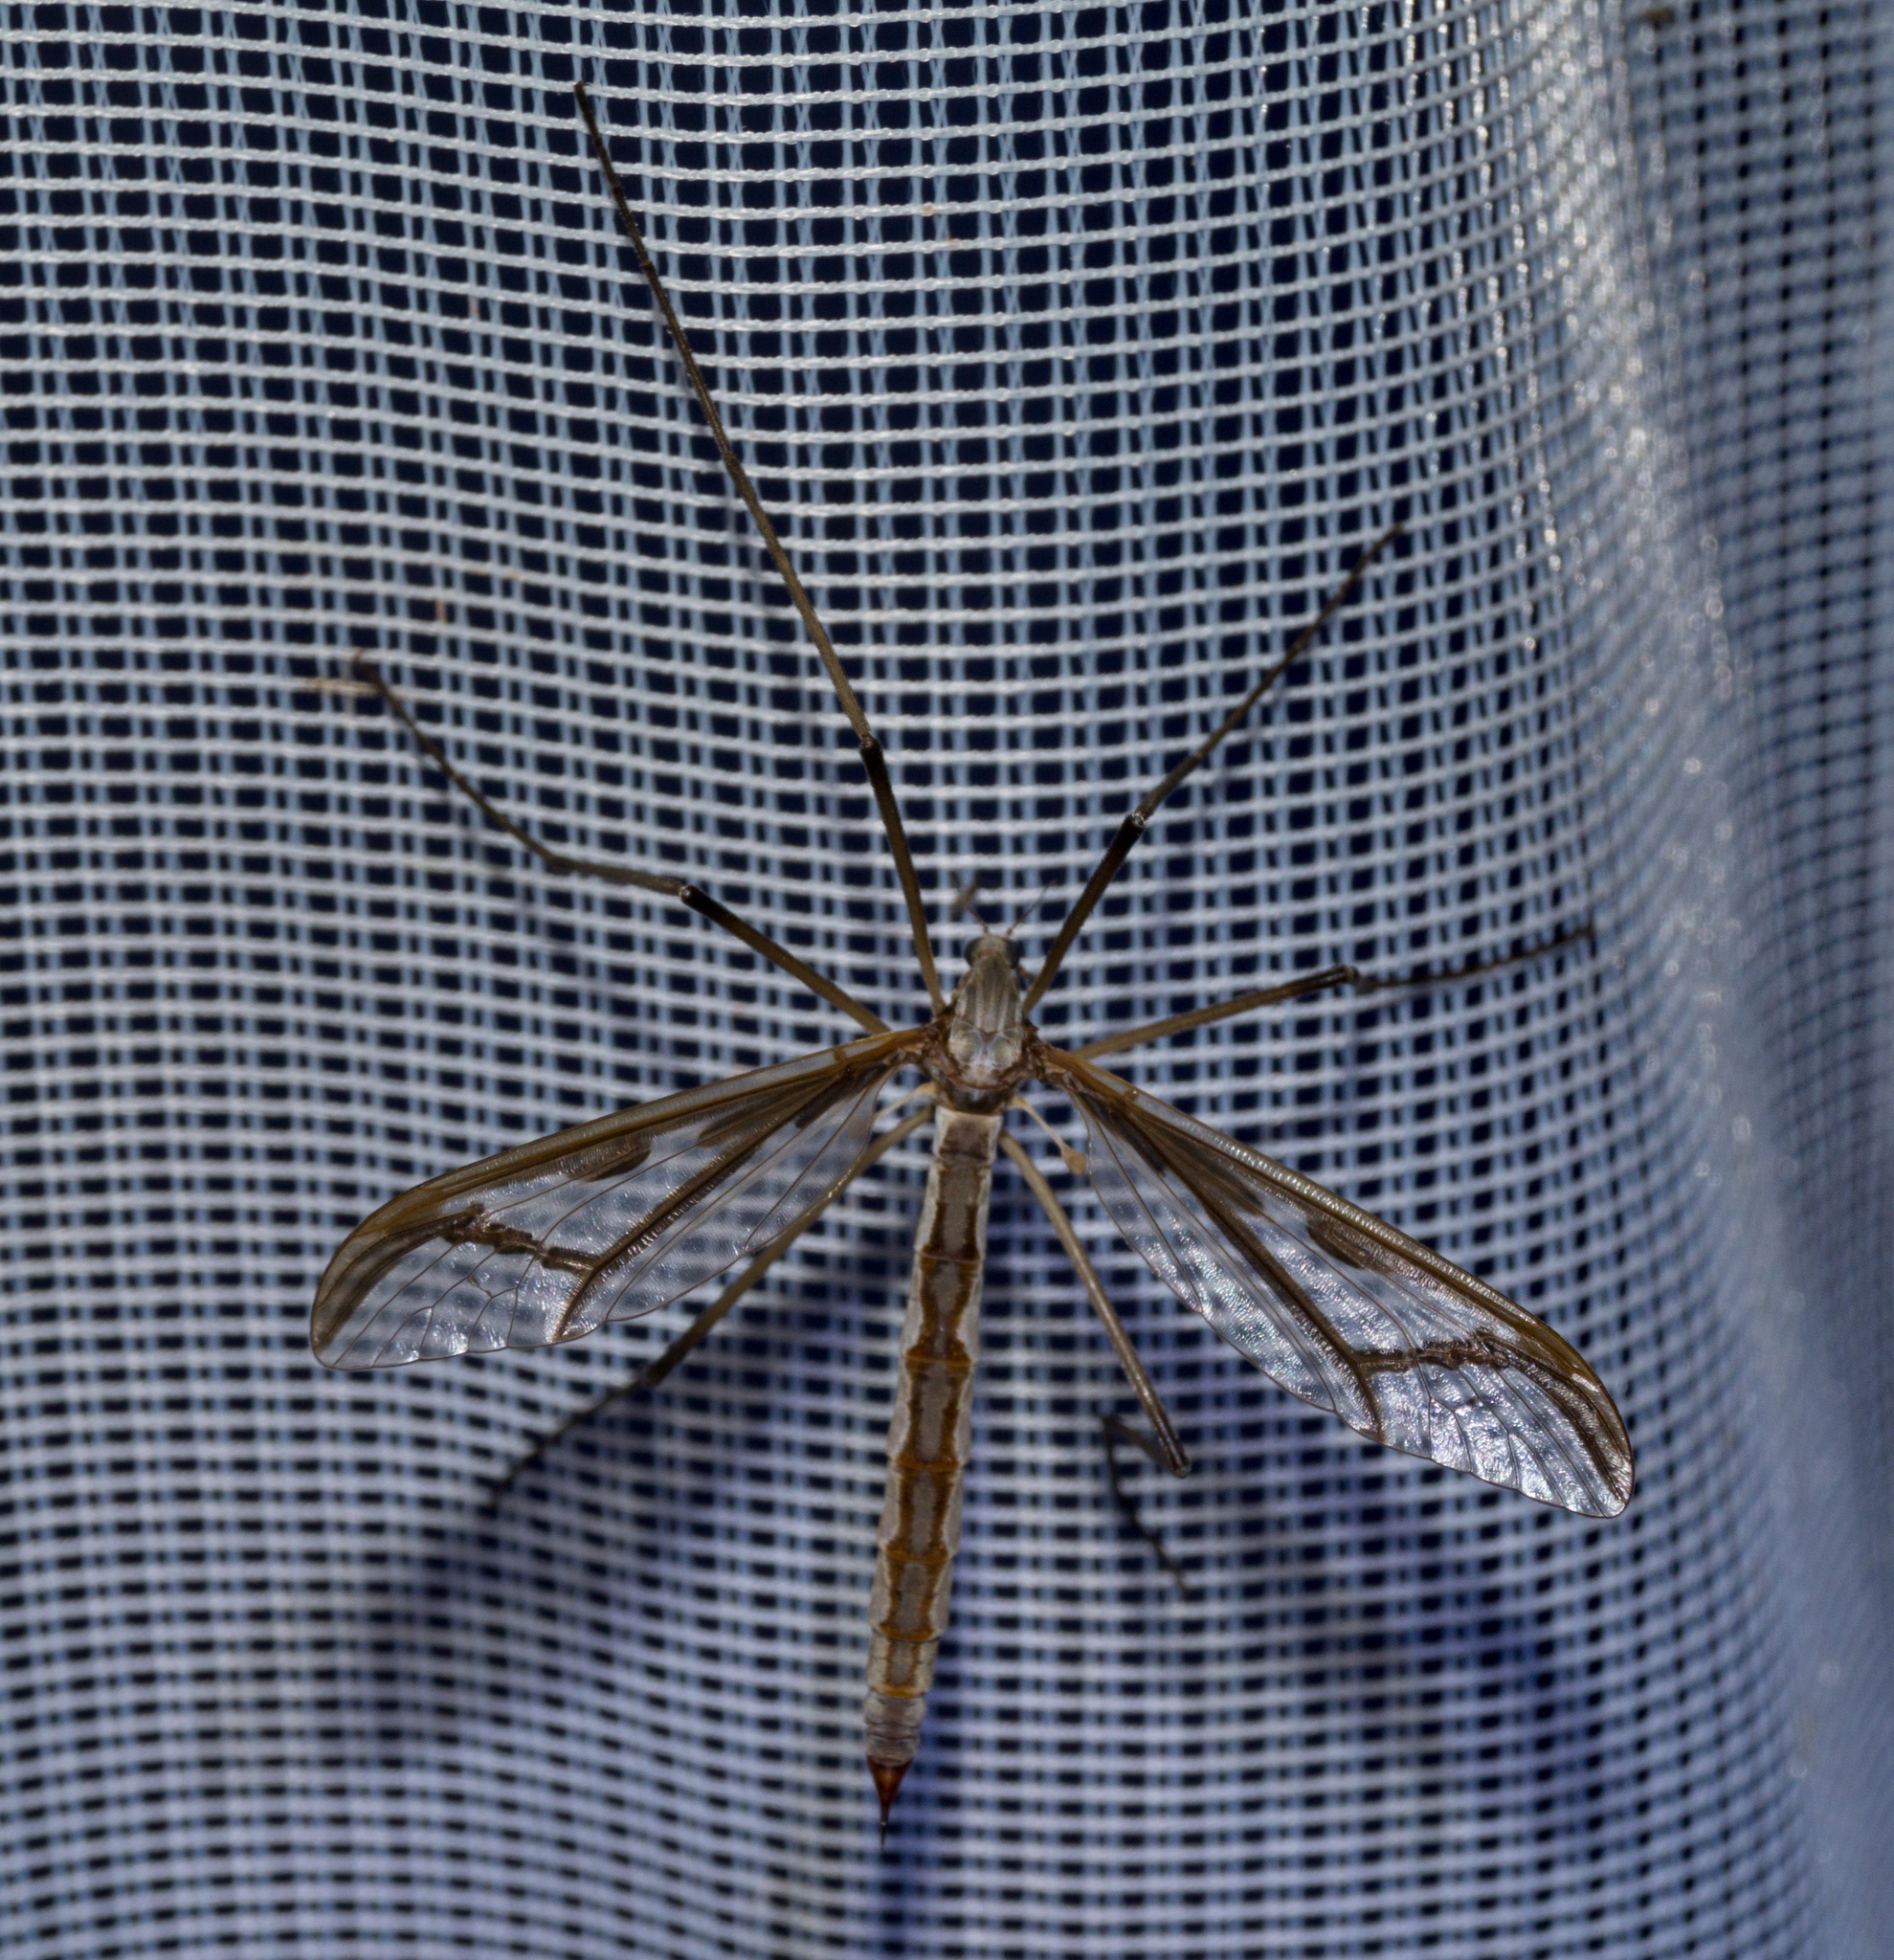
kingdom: Animalia
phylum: Arthropoda
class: Insecta
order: Diptera
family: Pediciidae
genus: Pedicia
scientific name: Pedicia rivosa
